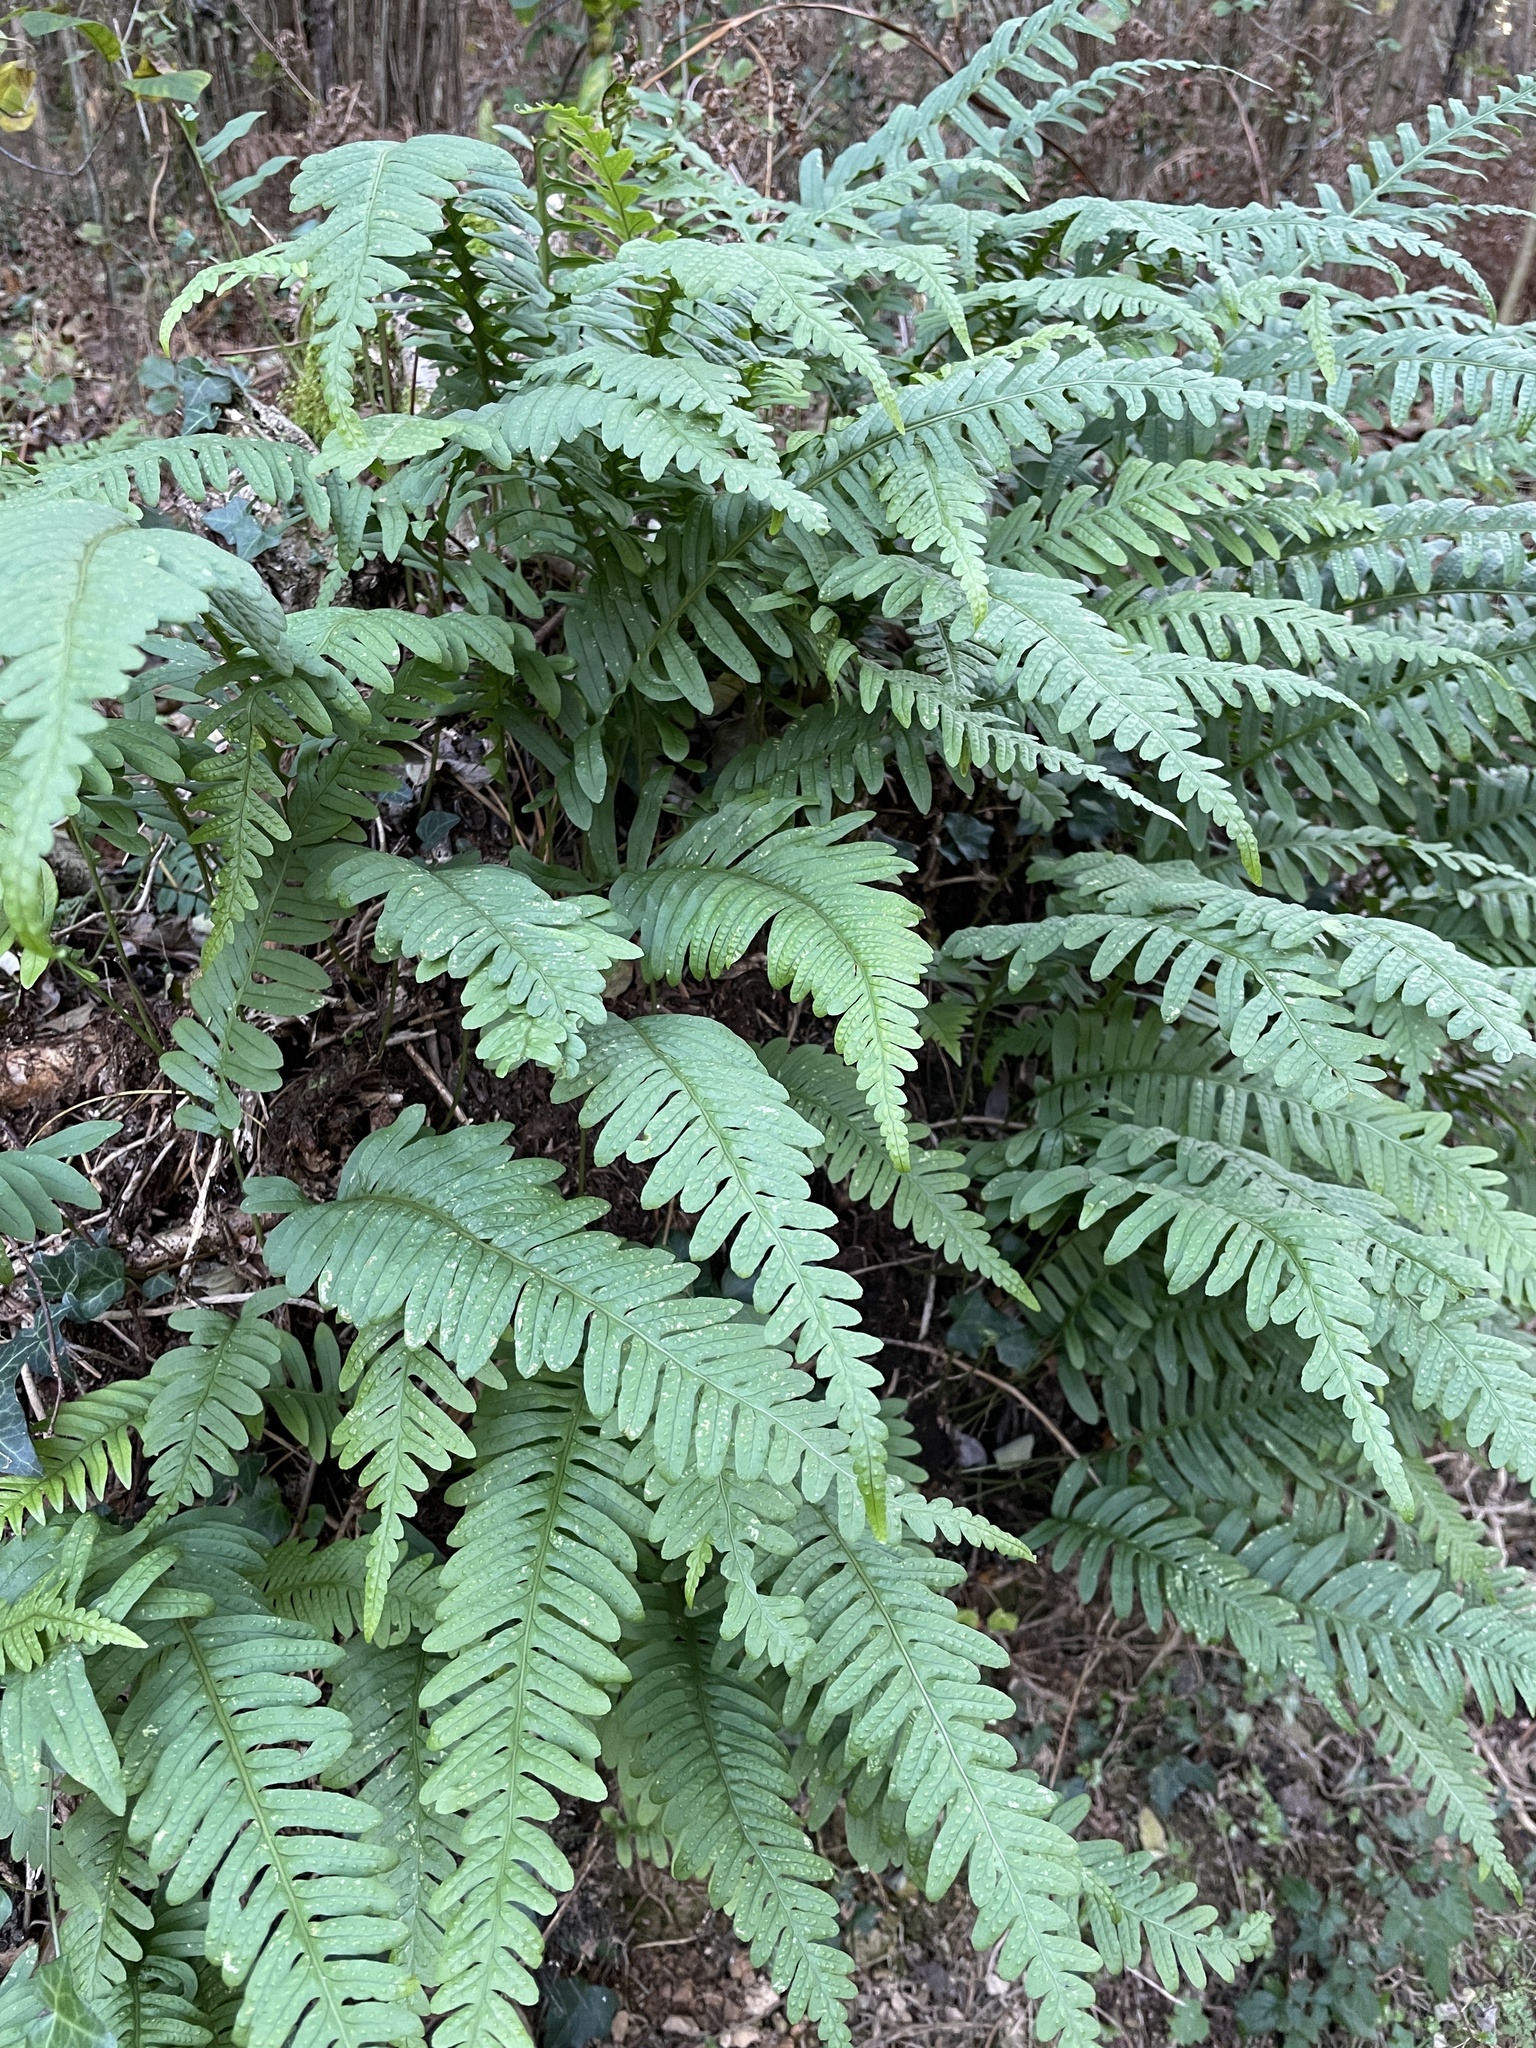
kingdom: Plantae
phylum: Tracheophyta
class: Polypodiopsida
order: Polypodiales
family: Polypodiaceae
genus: Polypodium
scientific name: Polypodium vulgare
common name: Common polypody
